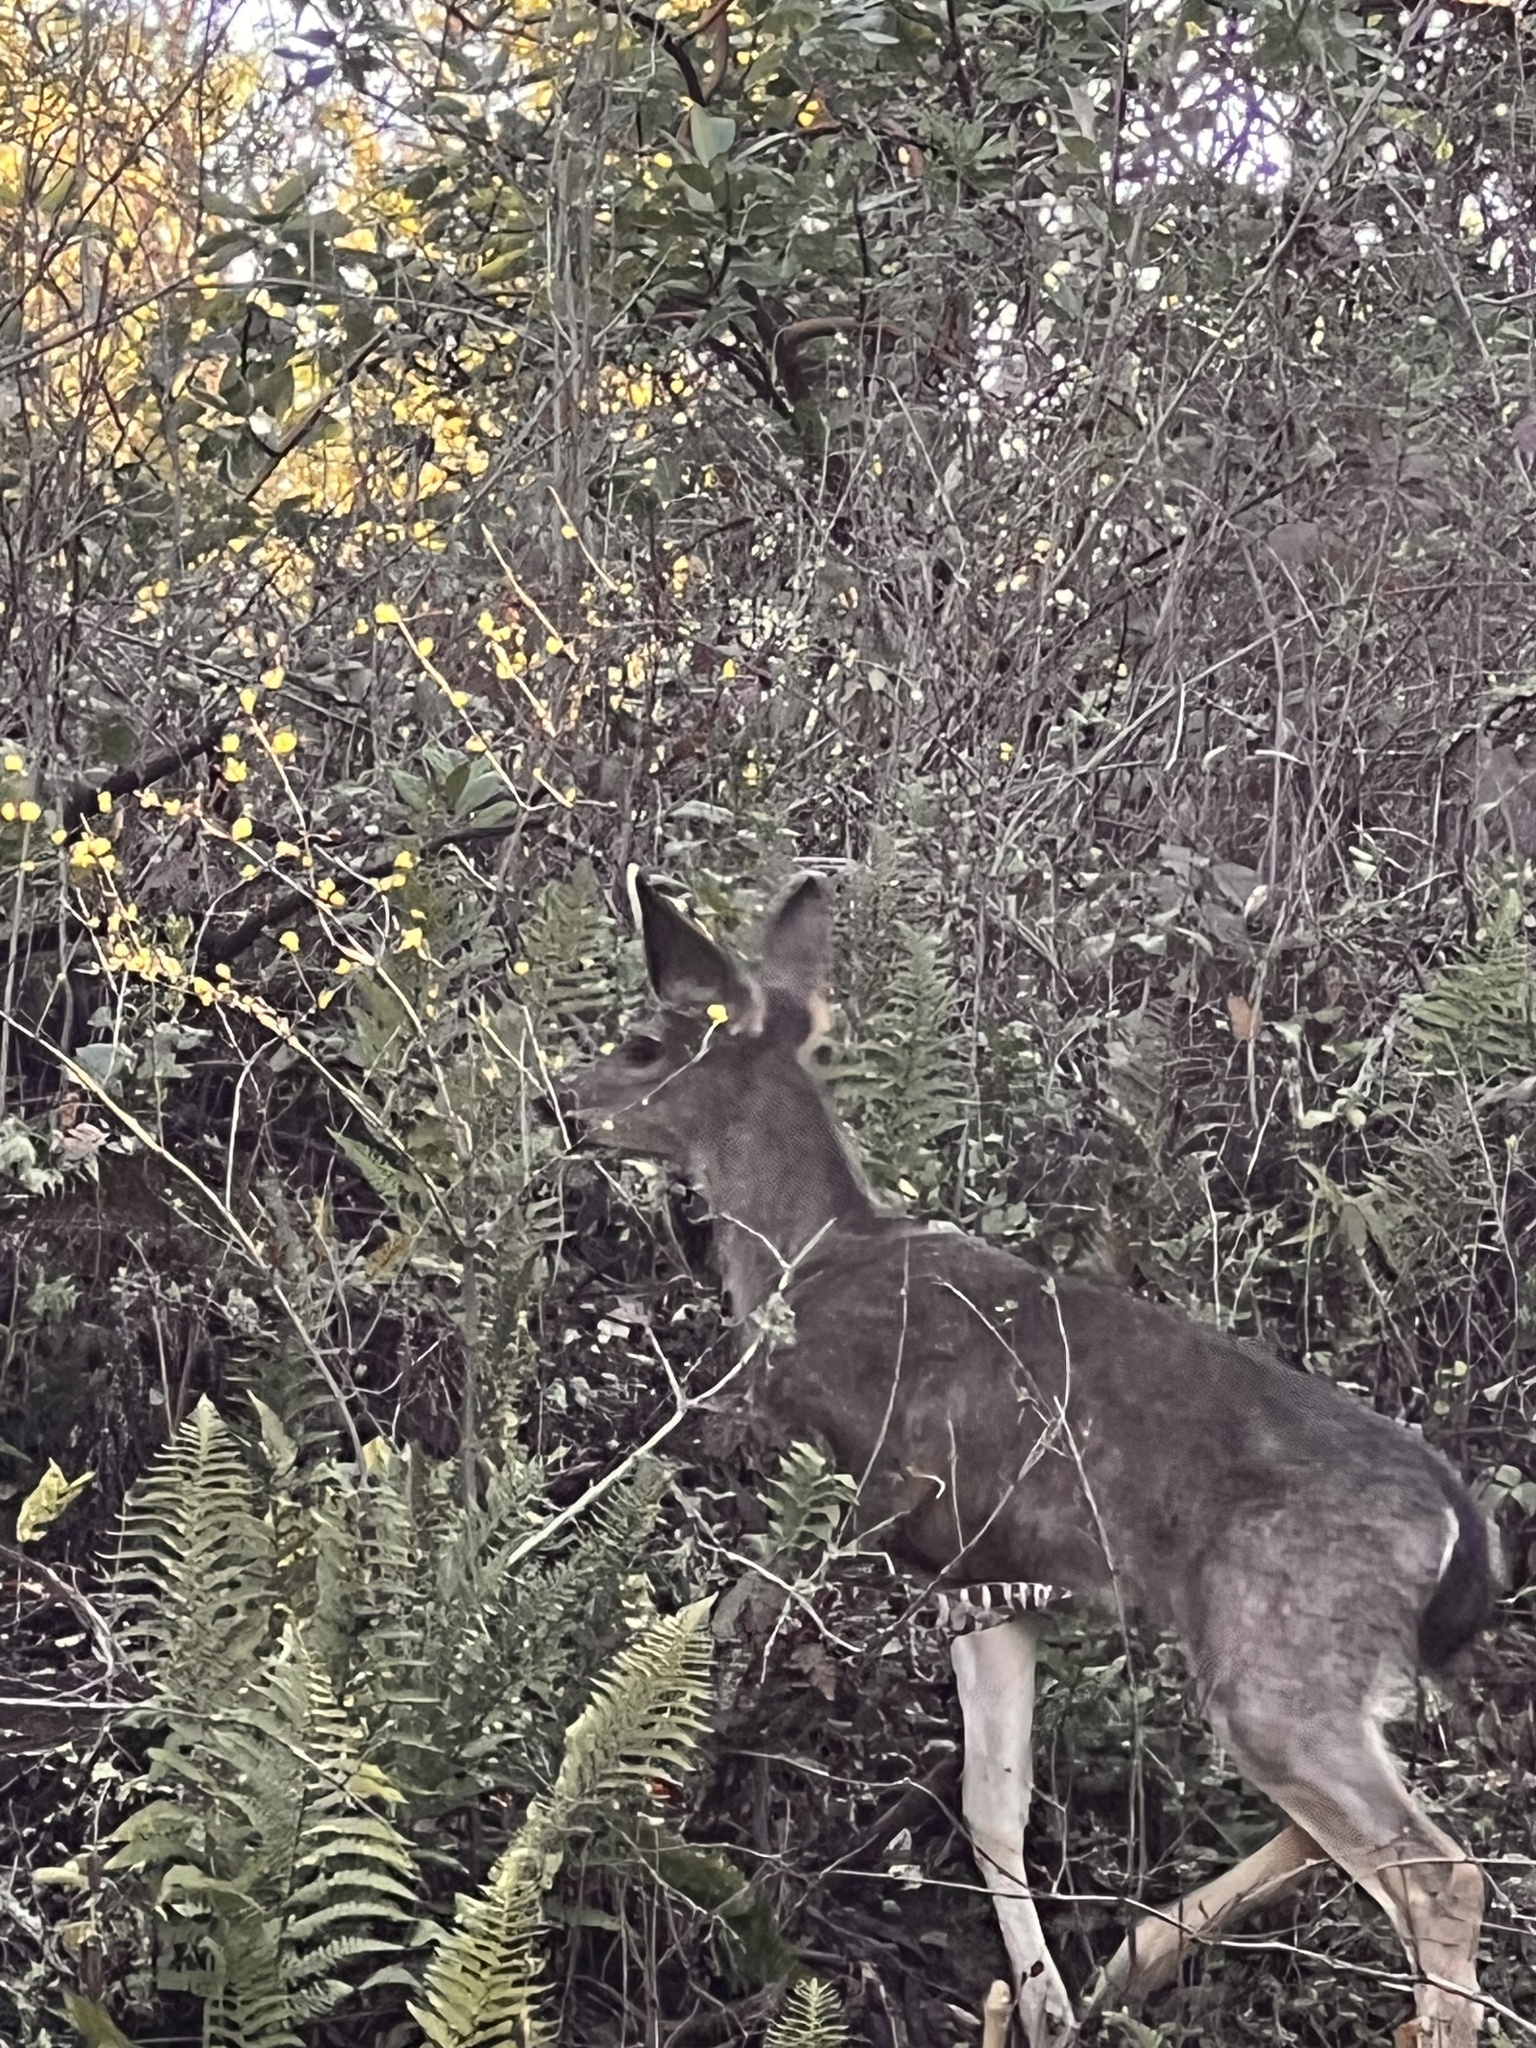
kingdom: Animalia
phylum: Chordata
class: Mammalia
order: Artiodactyla
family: Cervidae
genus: Odocoileus
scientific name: Odocoileus hemionus
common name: Mule deer
